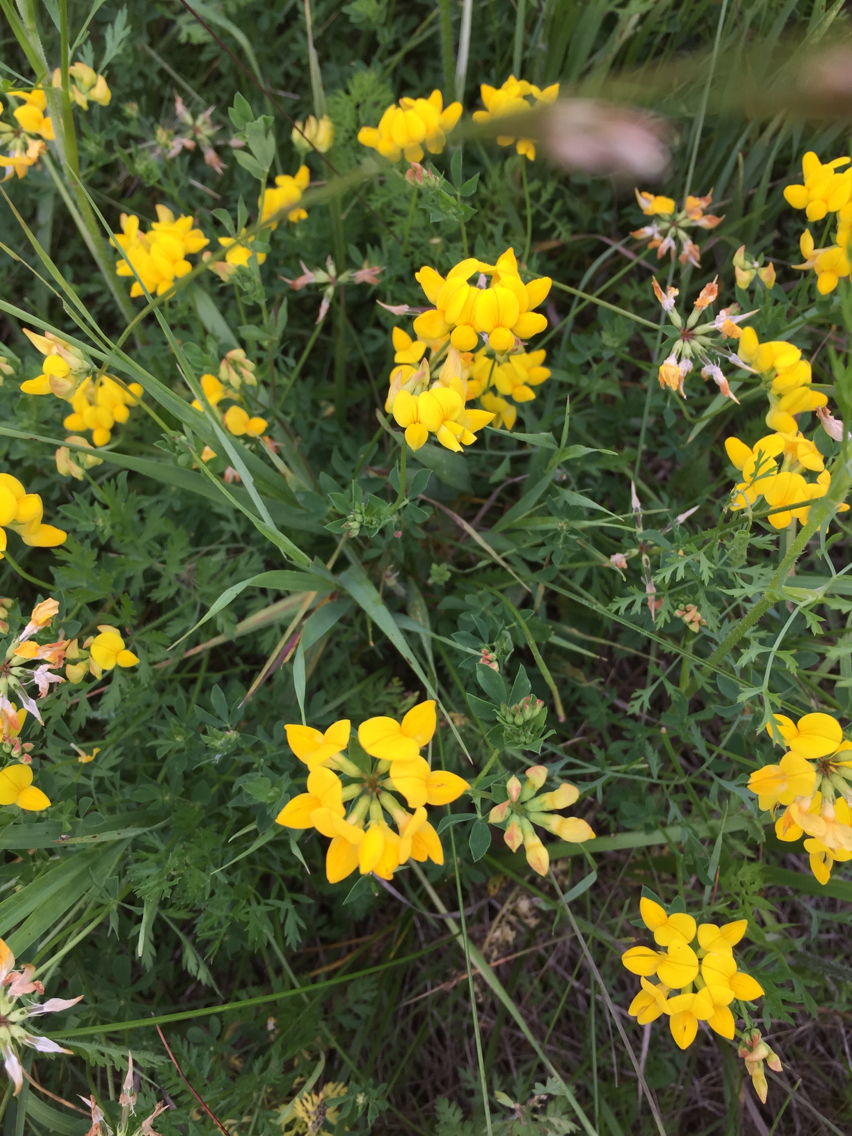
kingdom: Plantae
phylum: Tracheophyta
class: Magnoliopsida
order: Fabales
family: Fabaceae
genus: Lotus
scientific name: Lotus corniculatus
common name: Common bird's-foot-trefoil
